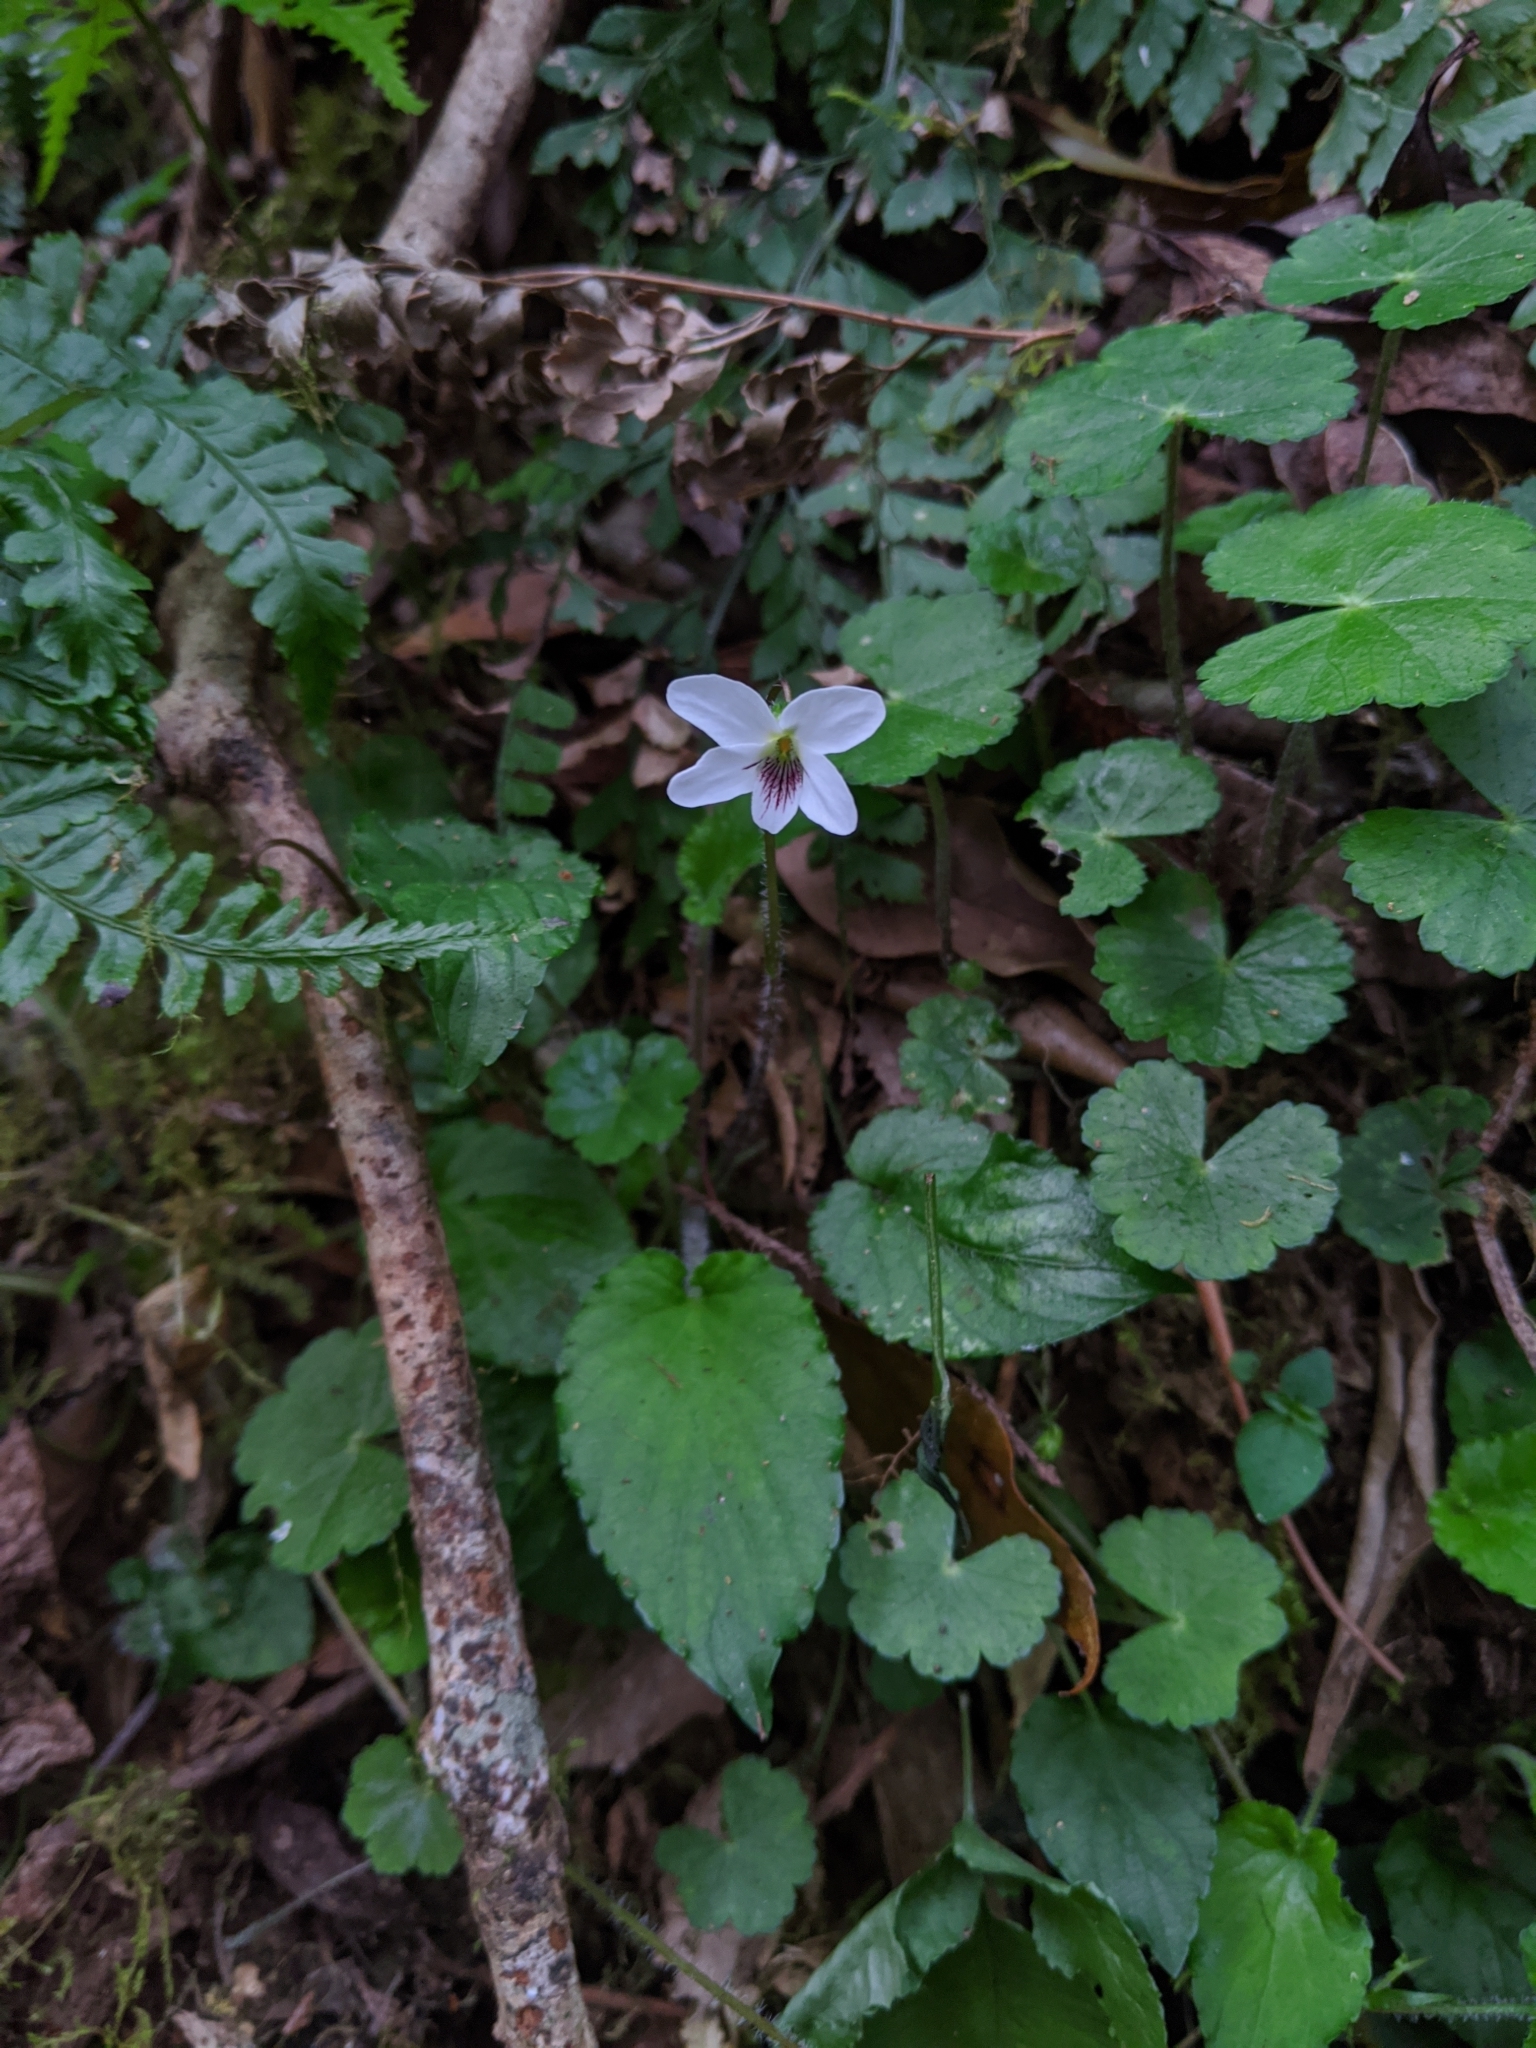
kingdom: Plantae
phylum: Tracheophyta
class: Magnoliopsida
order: Malpighiales
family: Violaceae
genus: Viola
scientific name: Viola adenothrix
